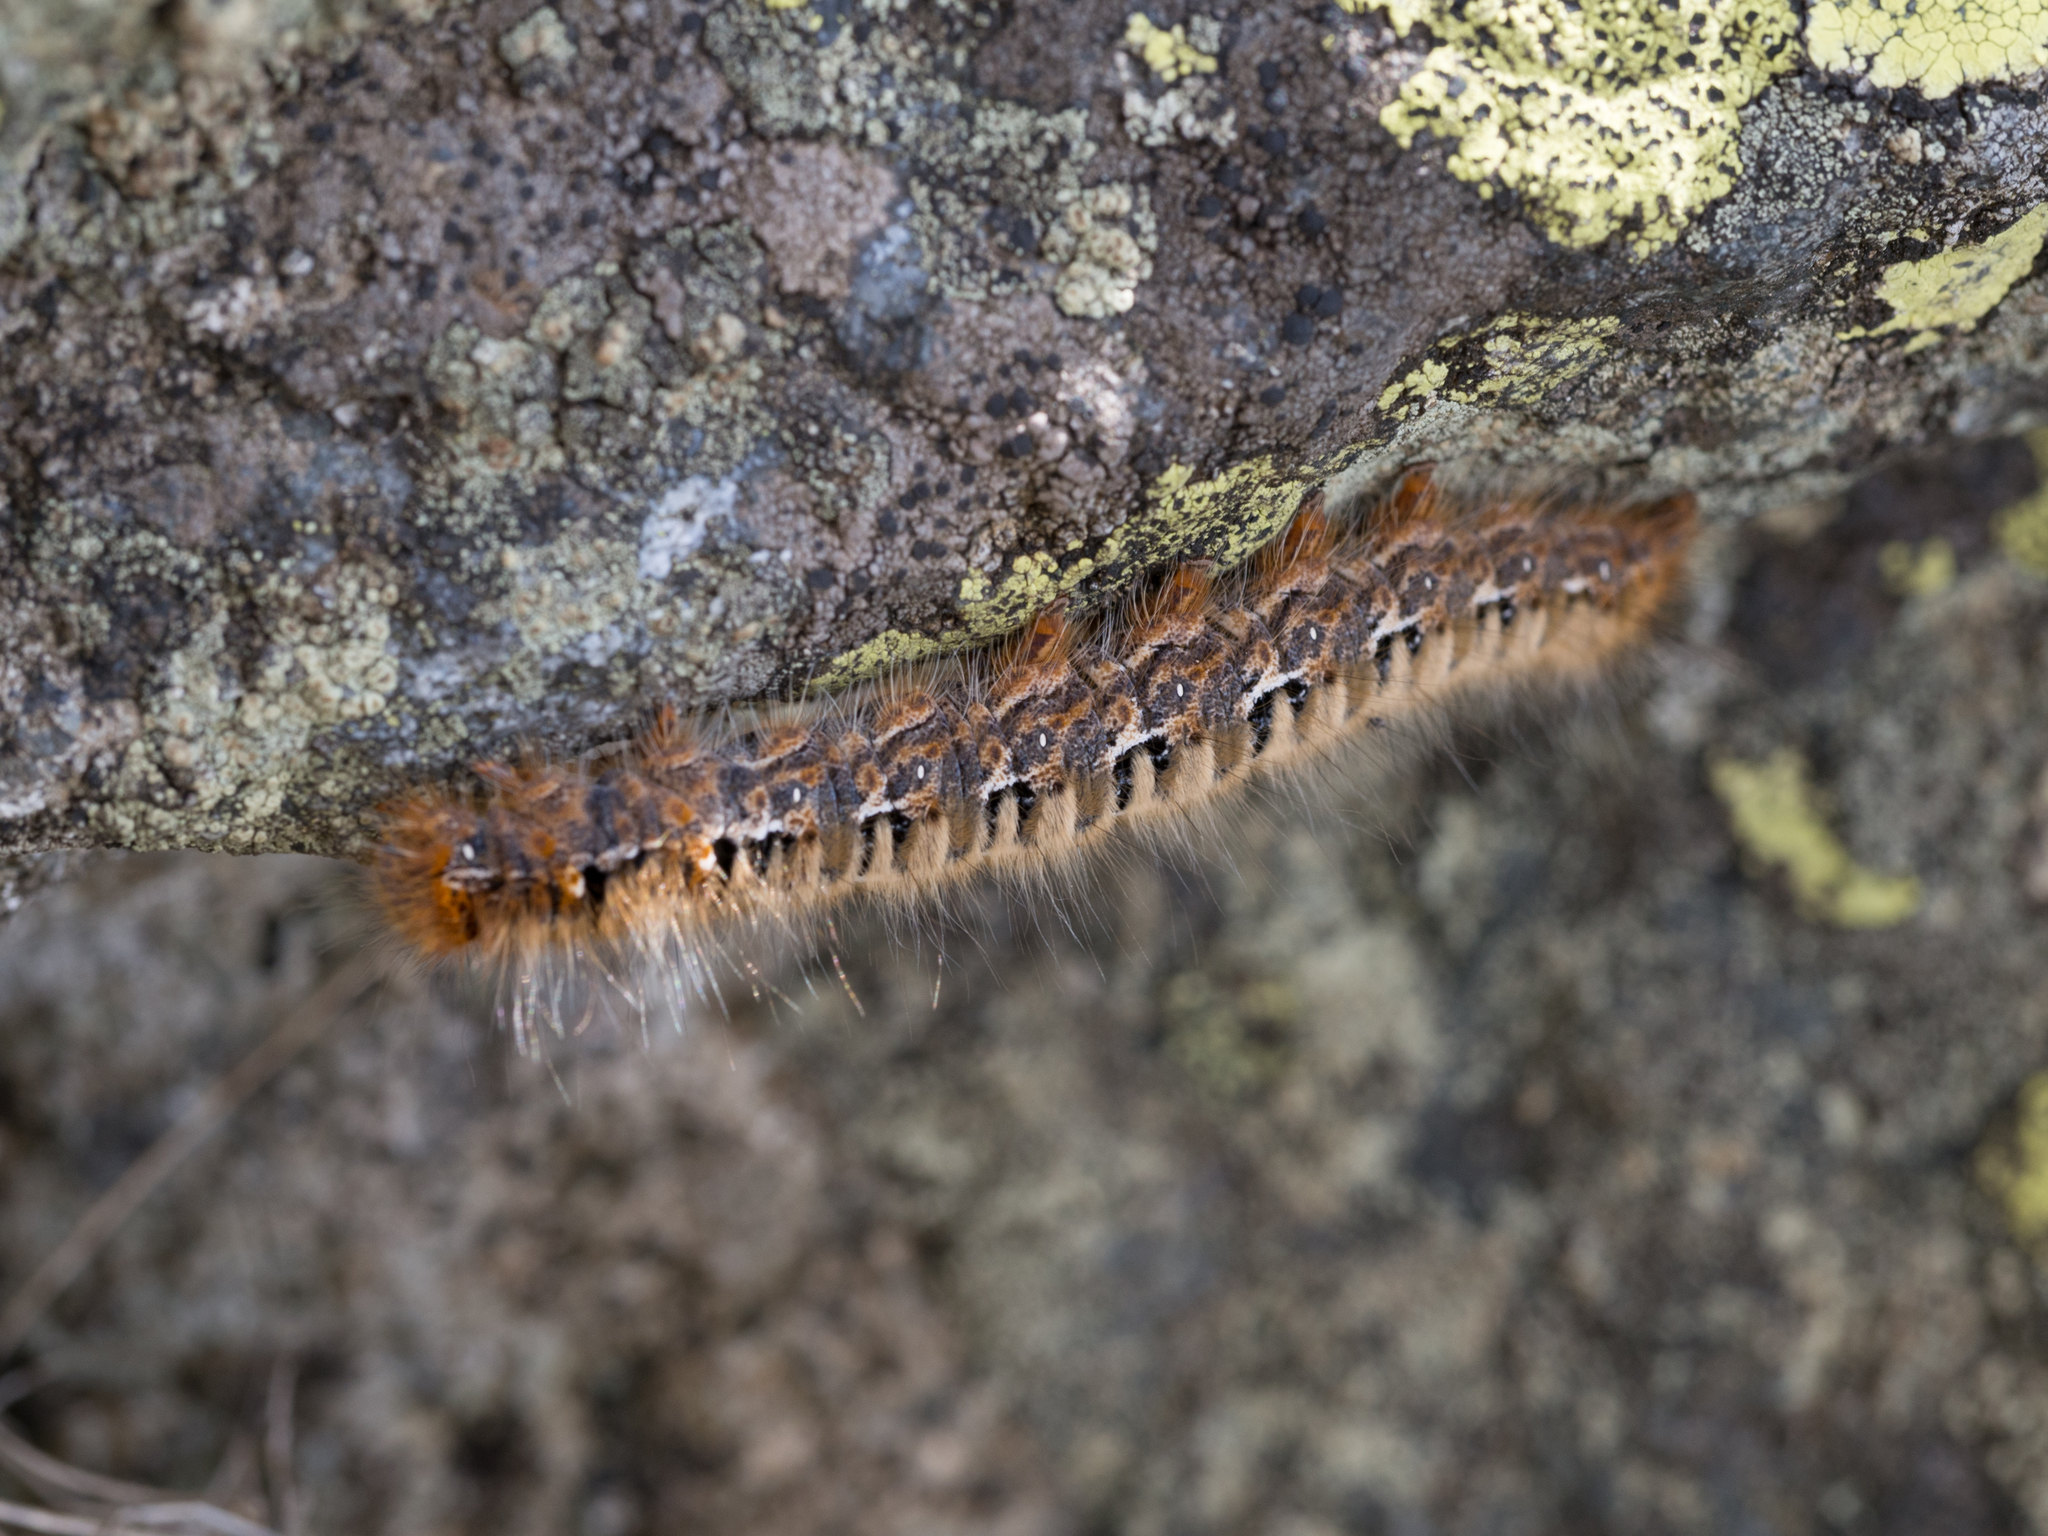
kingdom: Animalia
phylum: Arthropoda
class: Insecta
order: Lepidoptera
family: Lasiocampidae
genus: Lasiocampa
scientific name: Lasiocampa quercus
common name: Oak eggar
